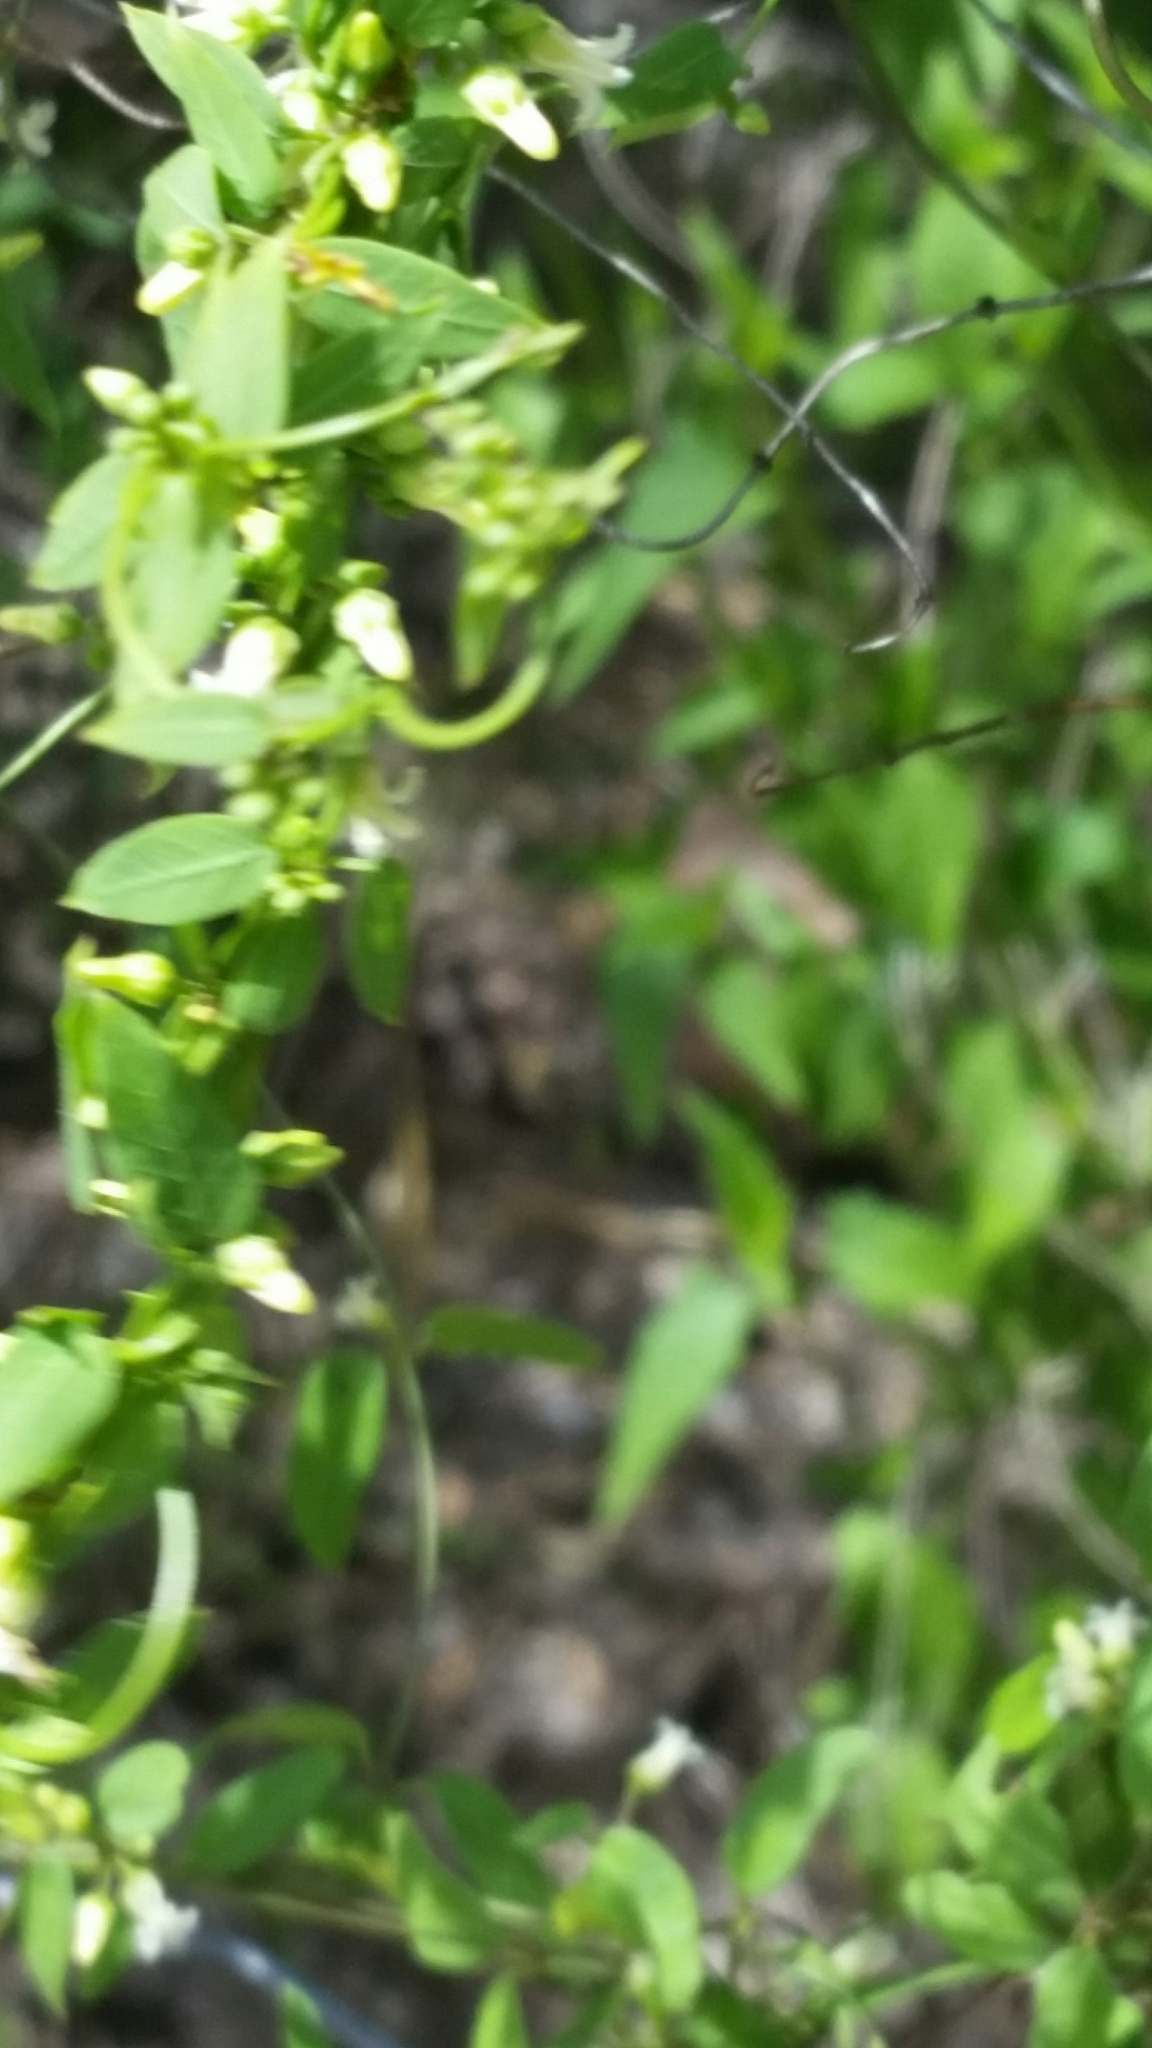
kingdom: Plantae
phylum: Tracheophyta
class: Magnoliopsida
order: Gentianales
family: Apocynaceae
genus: Metastelma
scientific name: Metastelma barbigerum
